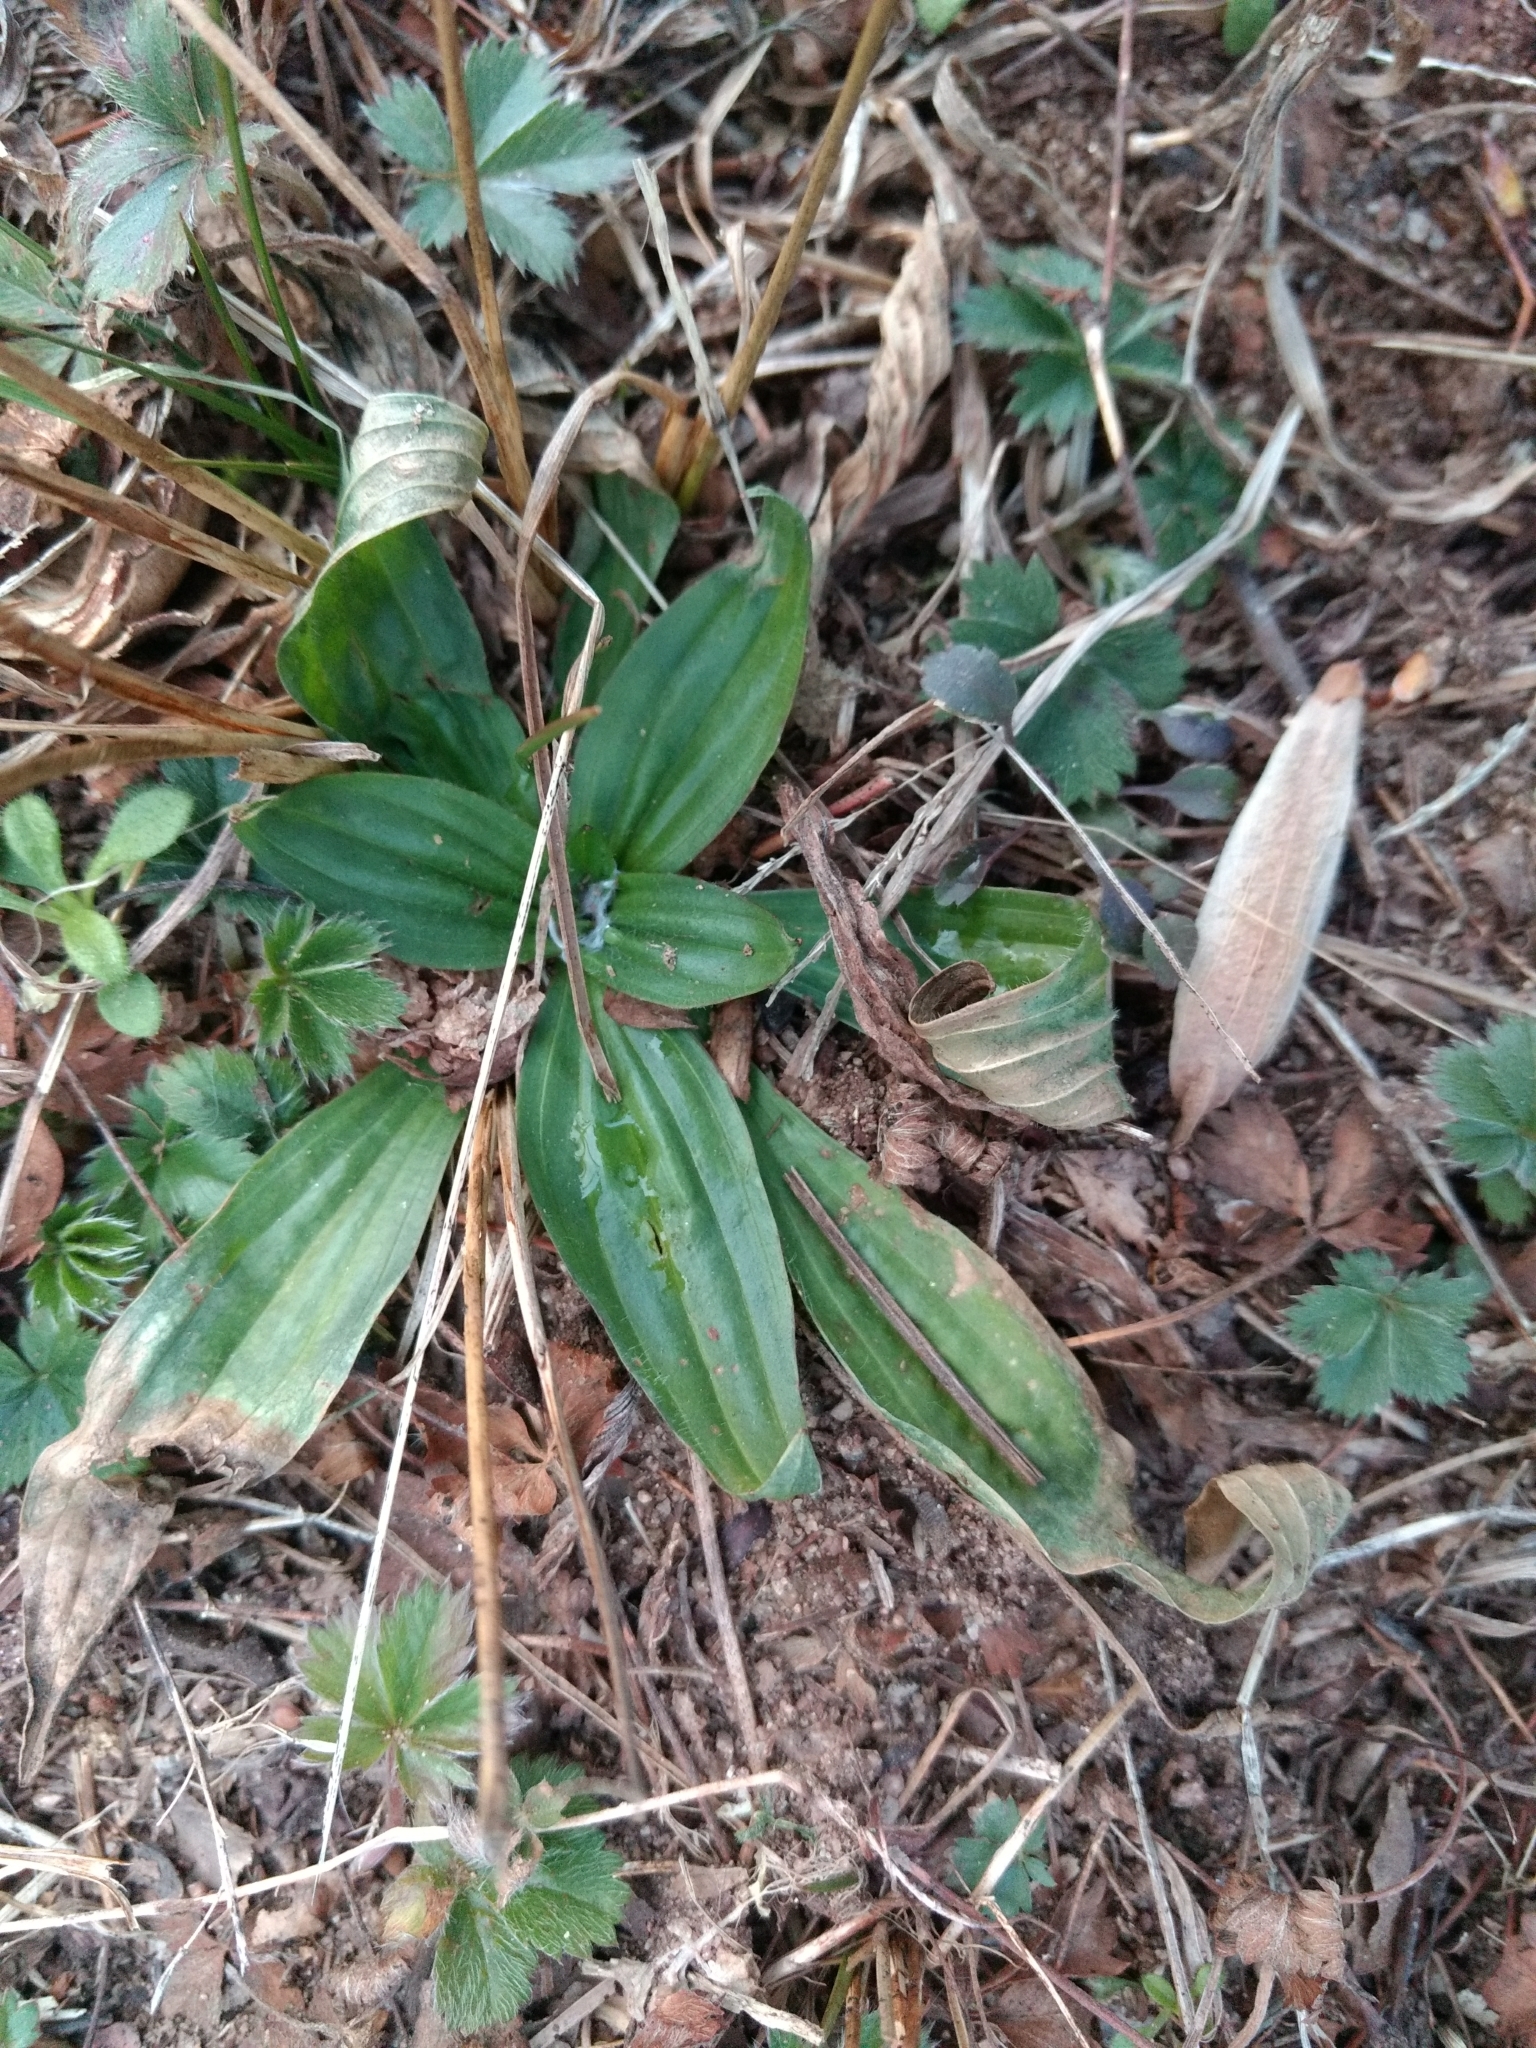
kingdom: Plantae
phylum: Tracheophyta
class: Magnoliopsida
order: Lamiales
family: Plantaginaceae
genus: Plantago
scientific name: Plantago lanceolata
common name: Ribwort plantain
